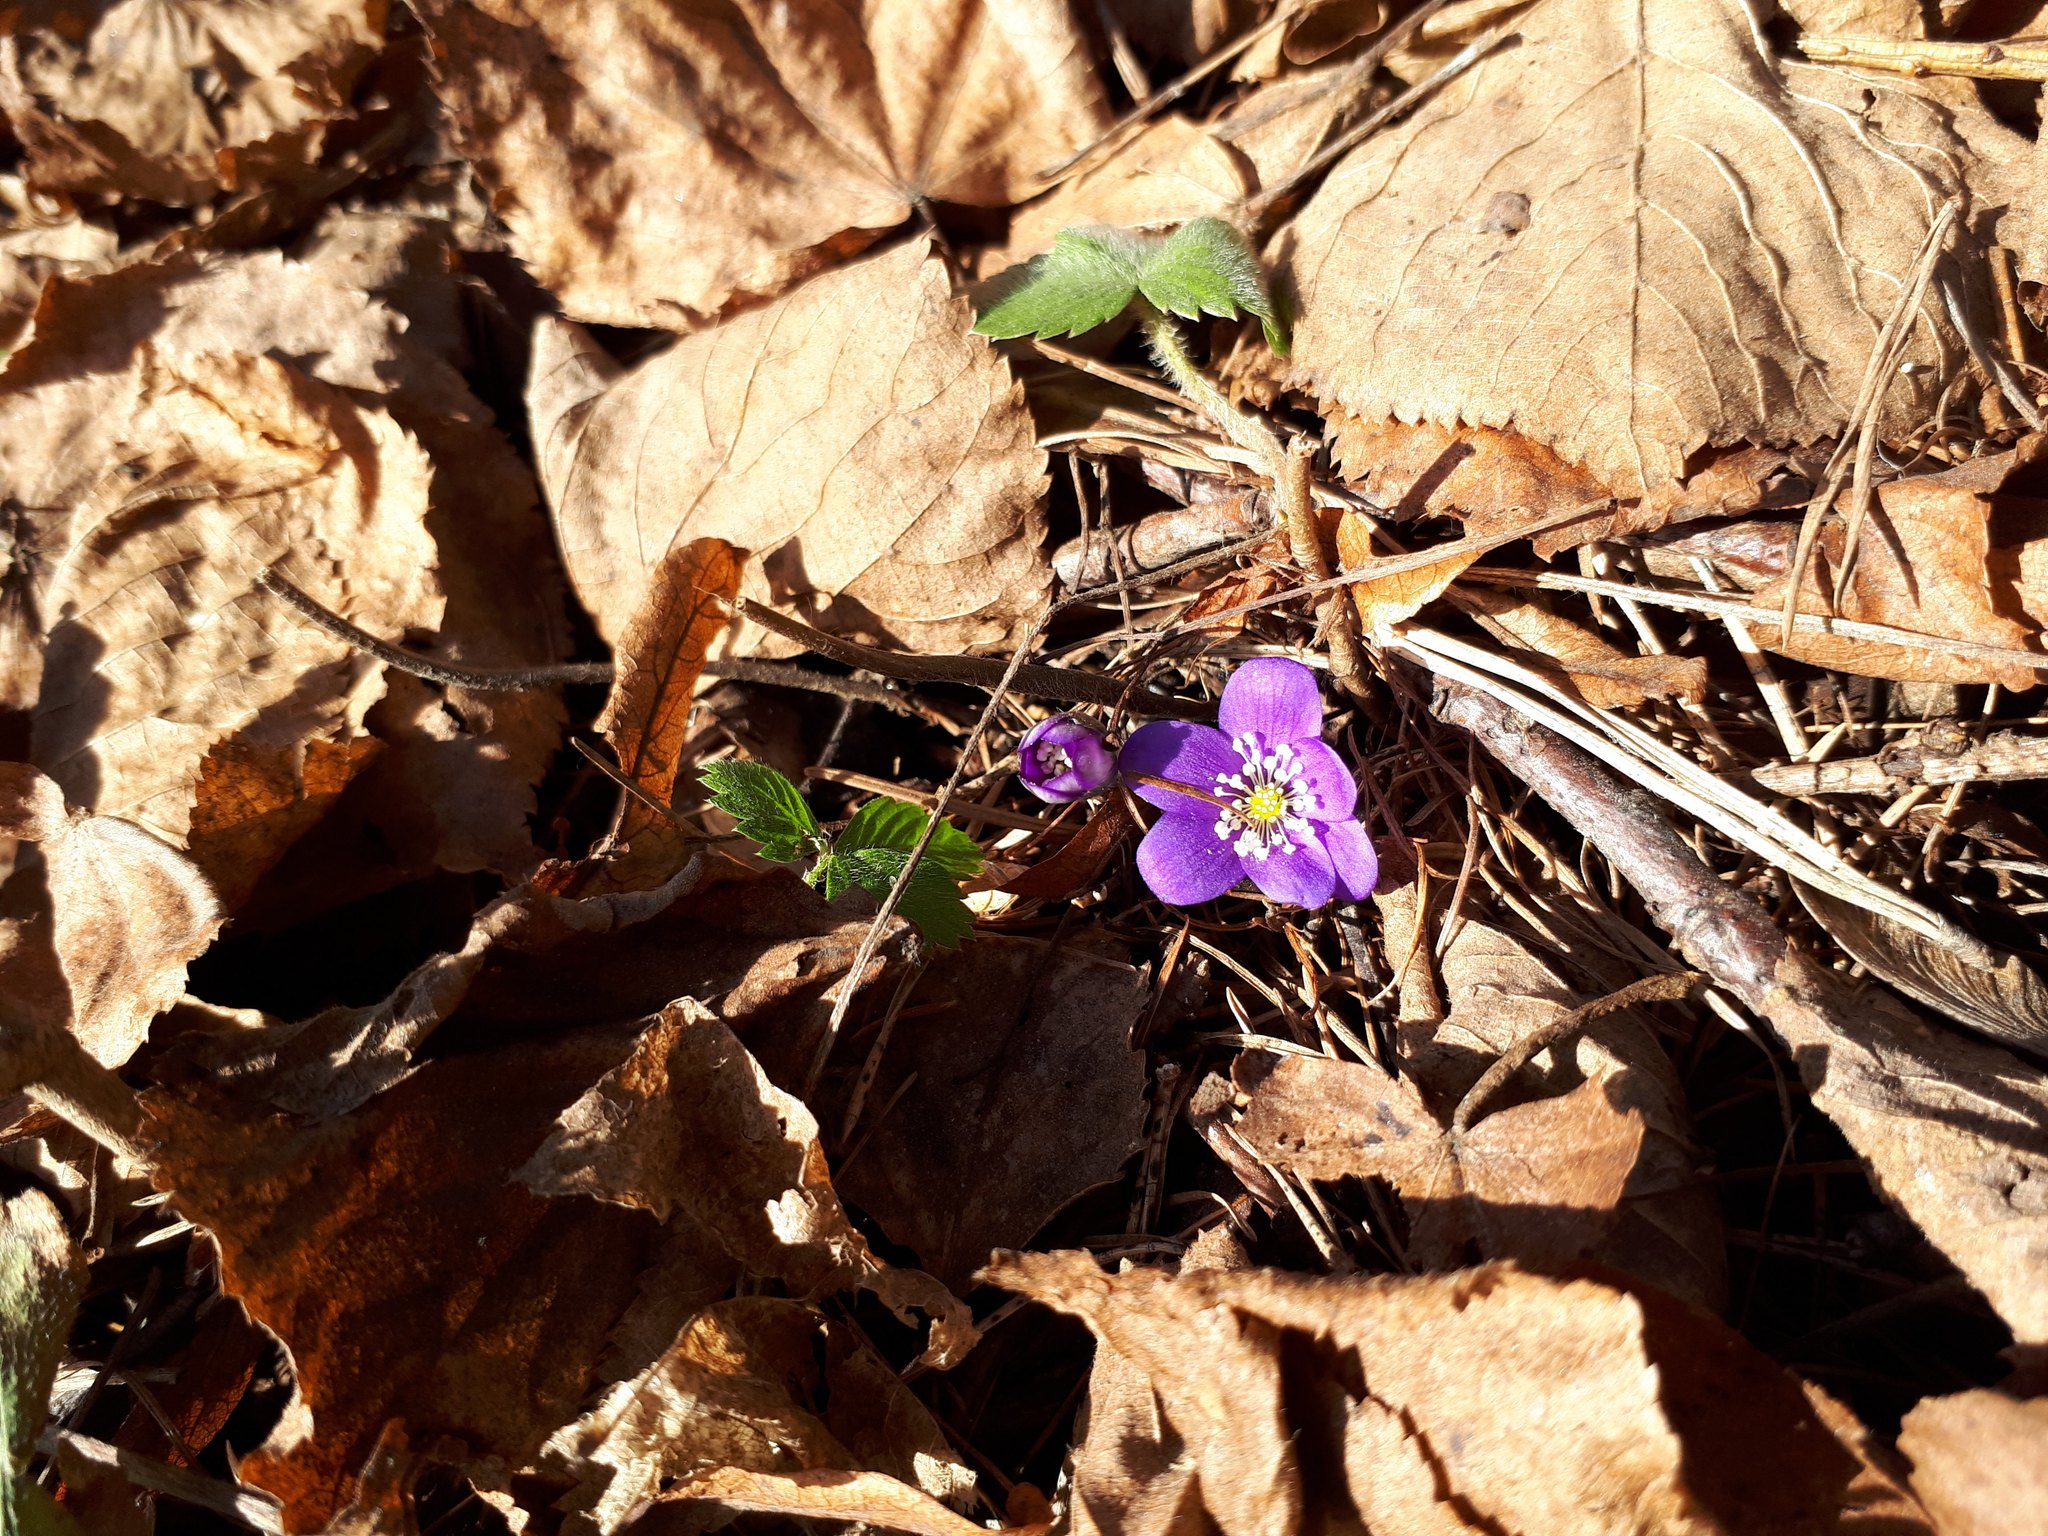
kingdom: Plantae
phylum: Tracheophyta
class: Magnoliopsida
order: Ranunculales
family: Ranunculaceae
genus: Hepatica
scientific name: Hepatica nobilis
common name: Liverleaf
